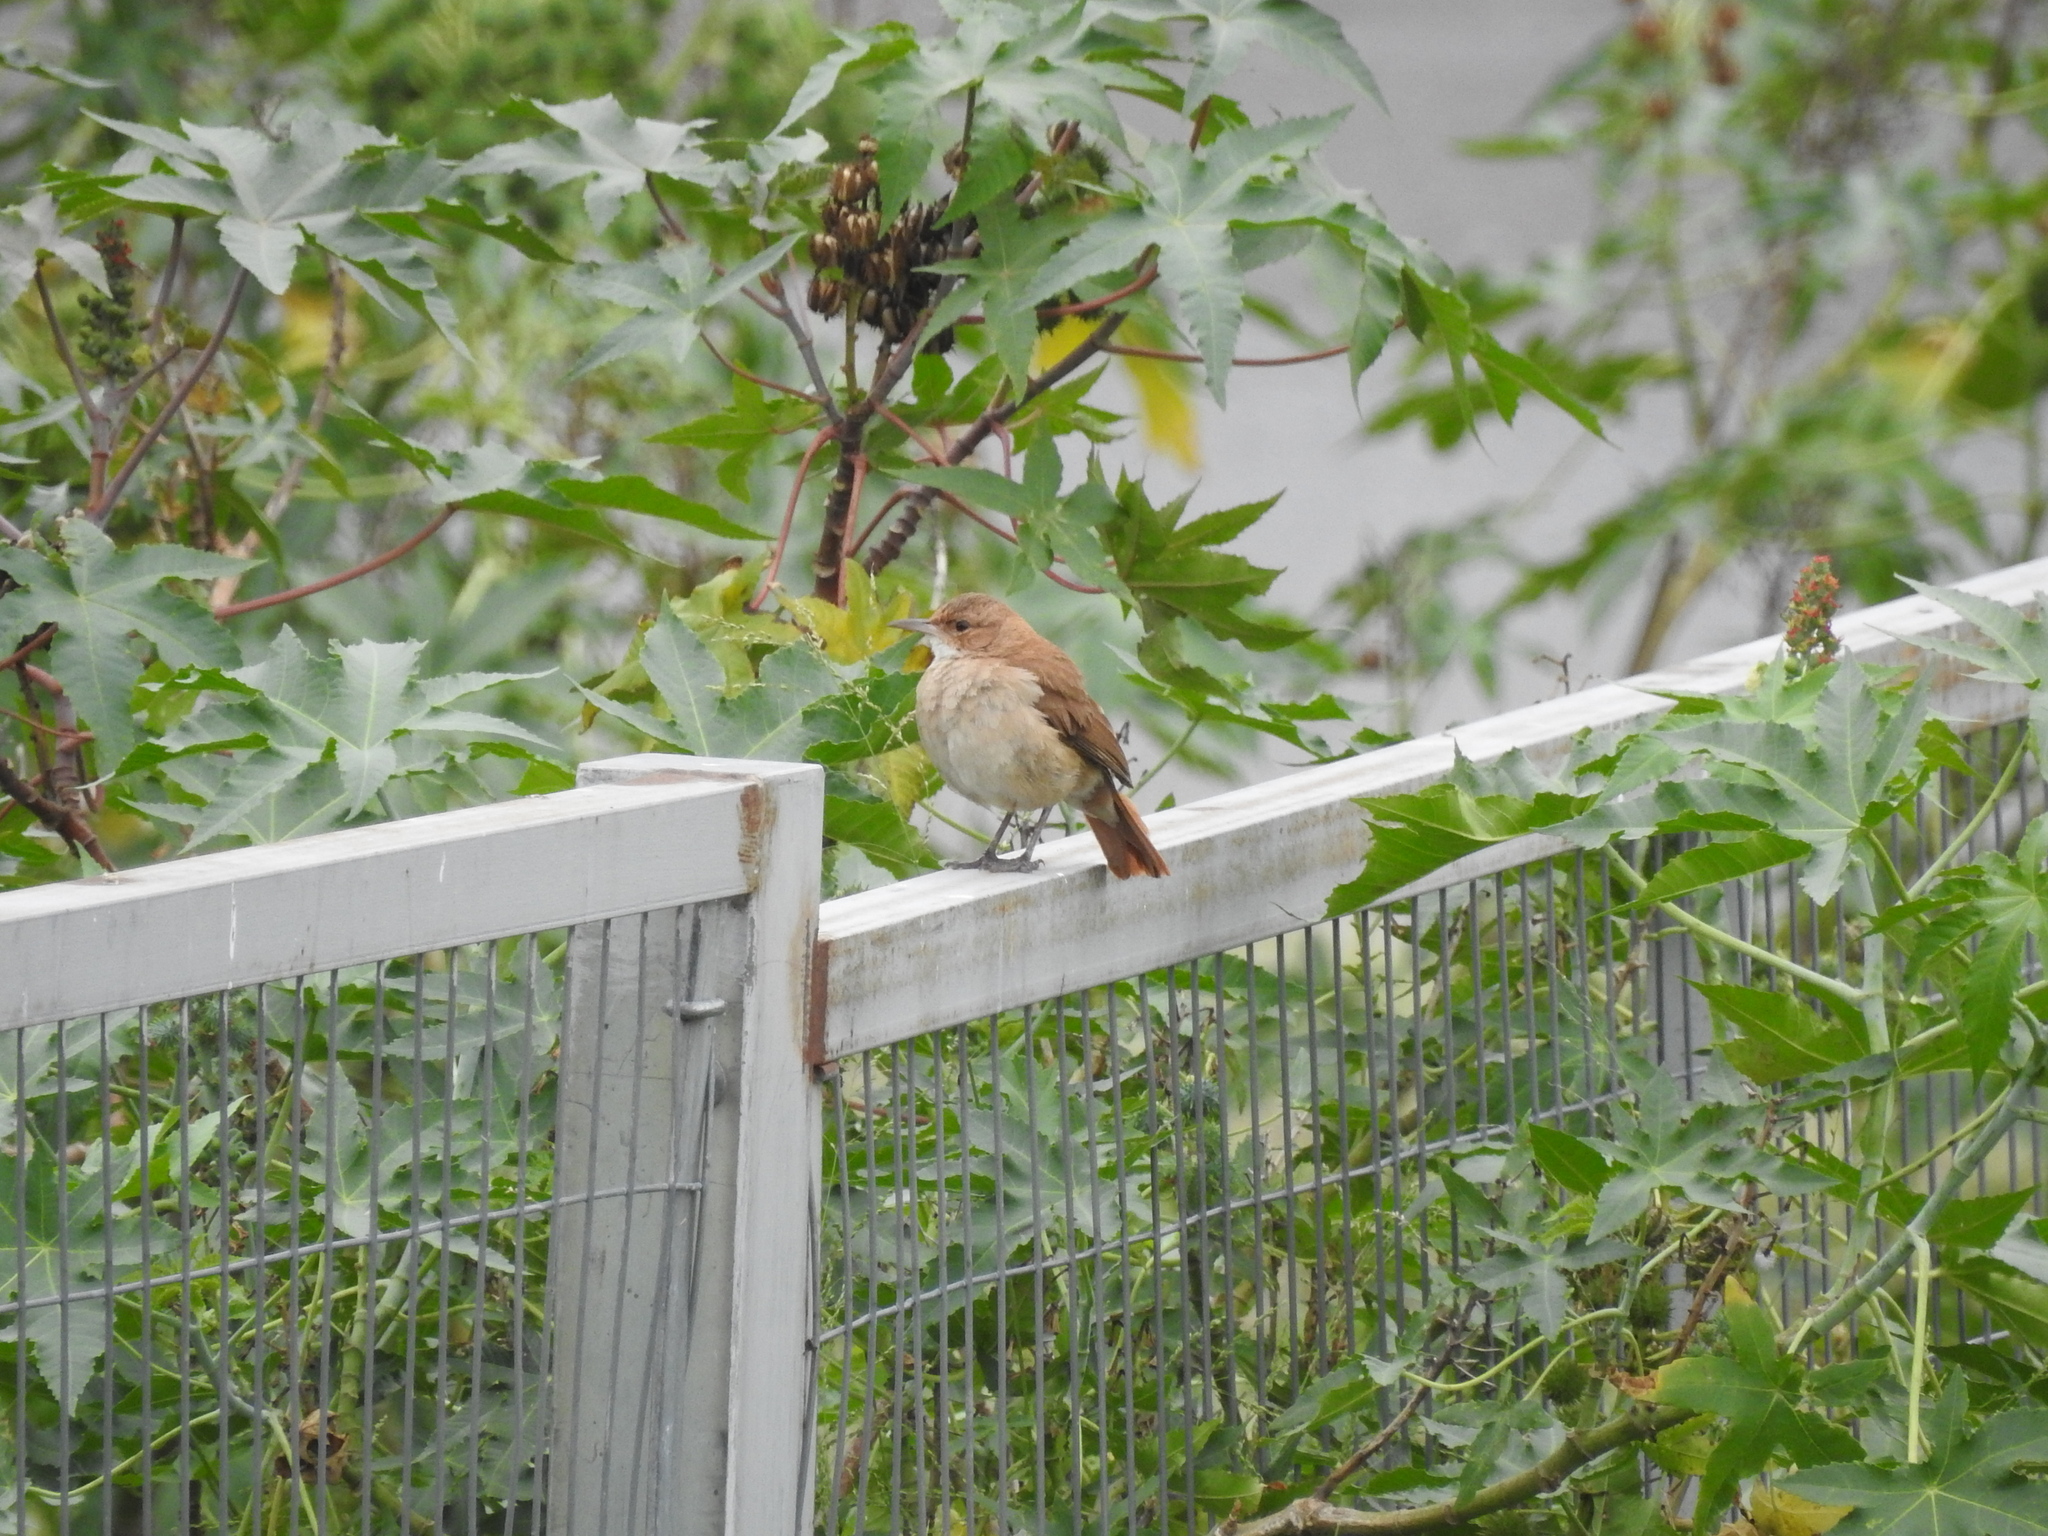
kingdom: Animalia
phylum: Chordata
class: Aves
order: Passeriformes
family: Furnariidae
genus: Furnarius
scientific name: Furnarius rufus
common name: Rufous hornero
